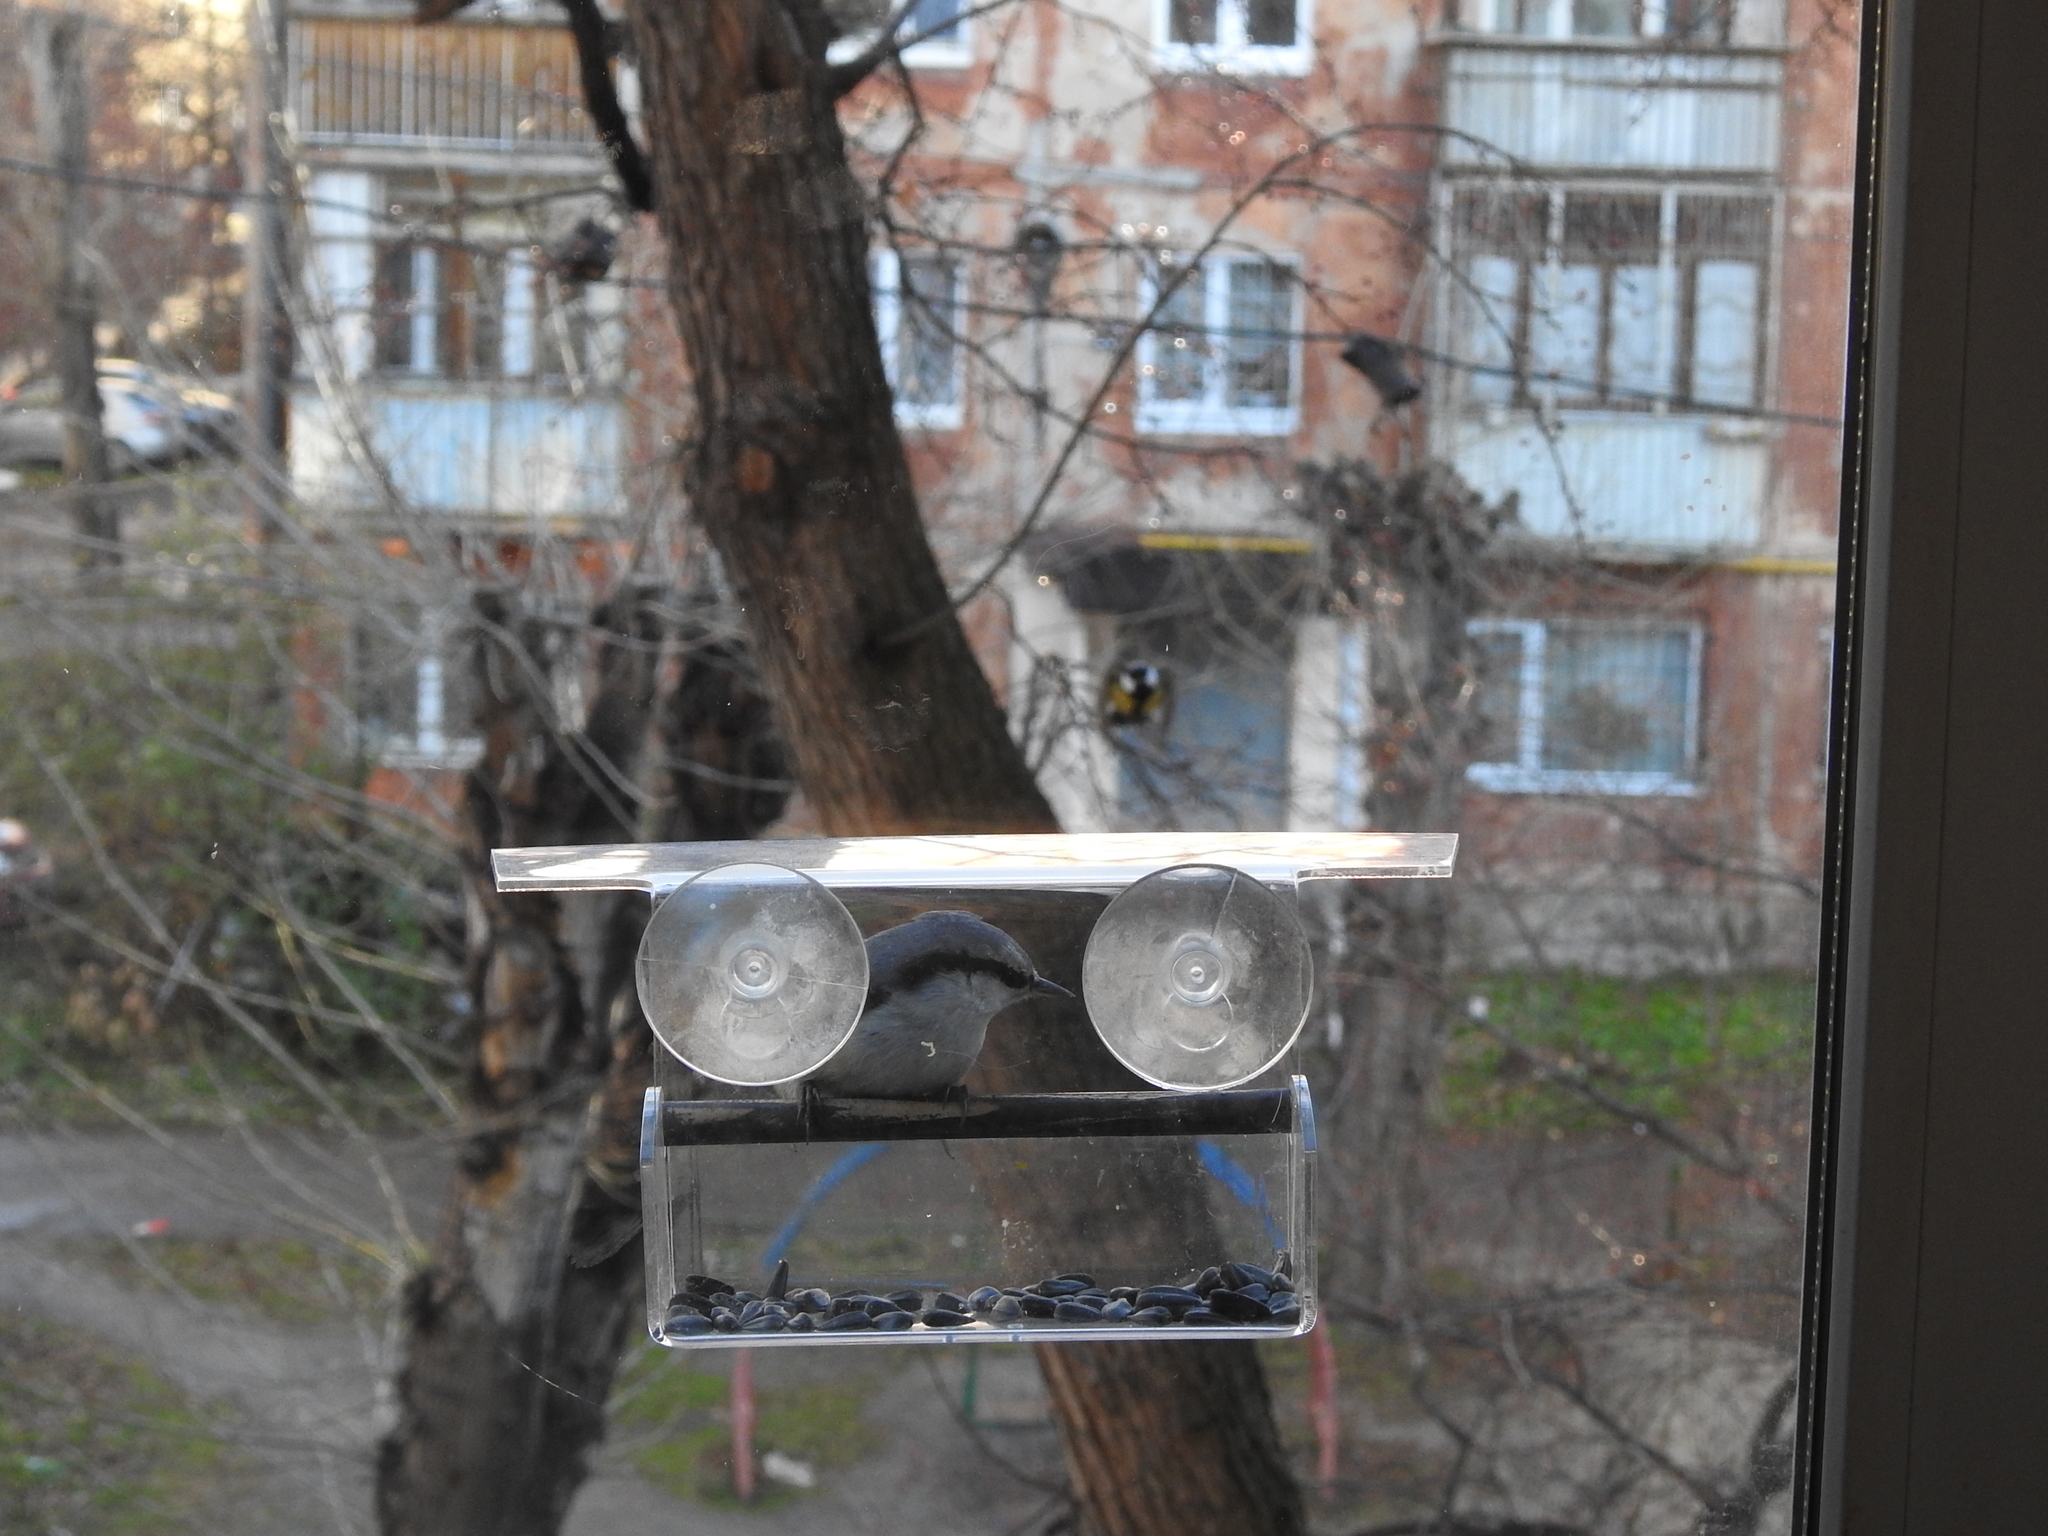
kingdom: Animalia
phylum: Chordata
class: Aves
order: Passeriformes
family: Sittidae
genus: Sitta
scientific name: Sitta europaea
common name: Eurasian nuthatch
